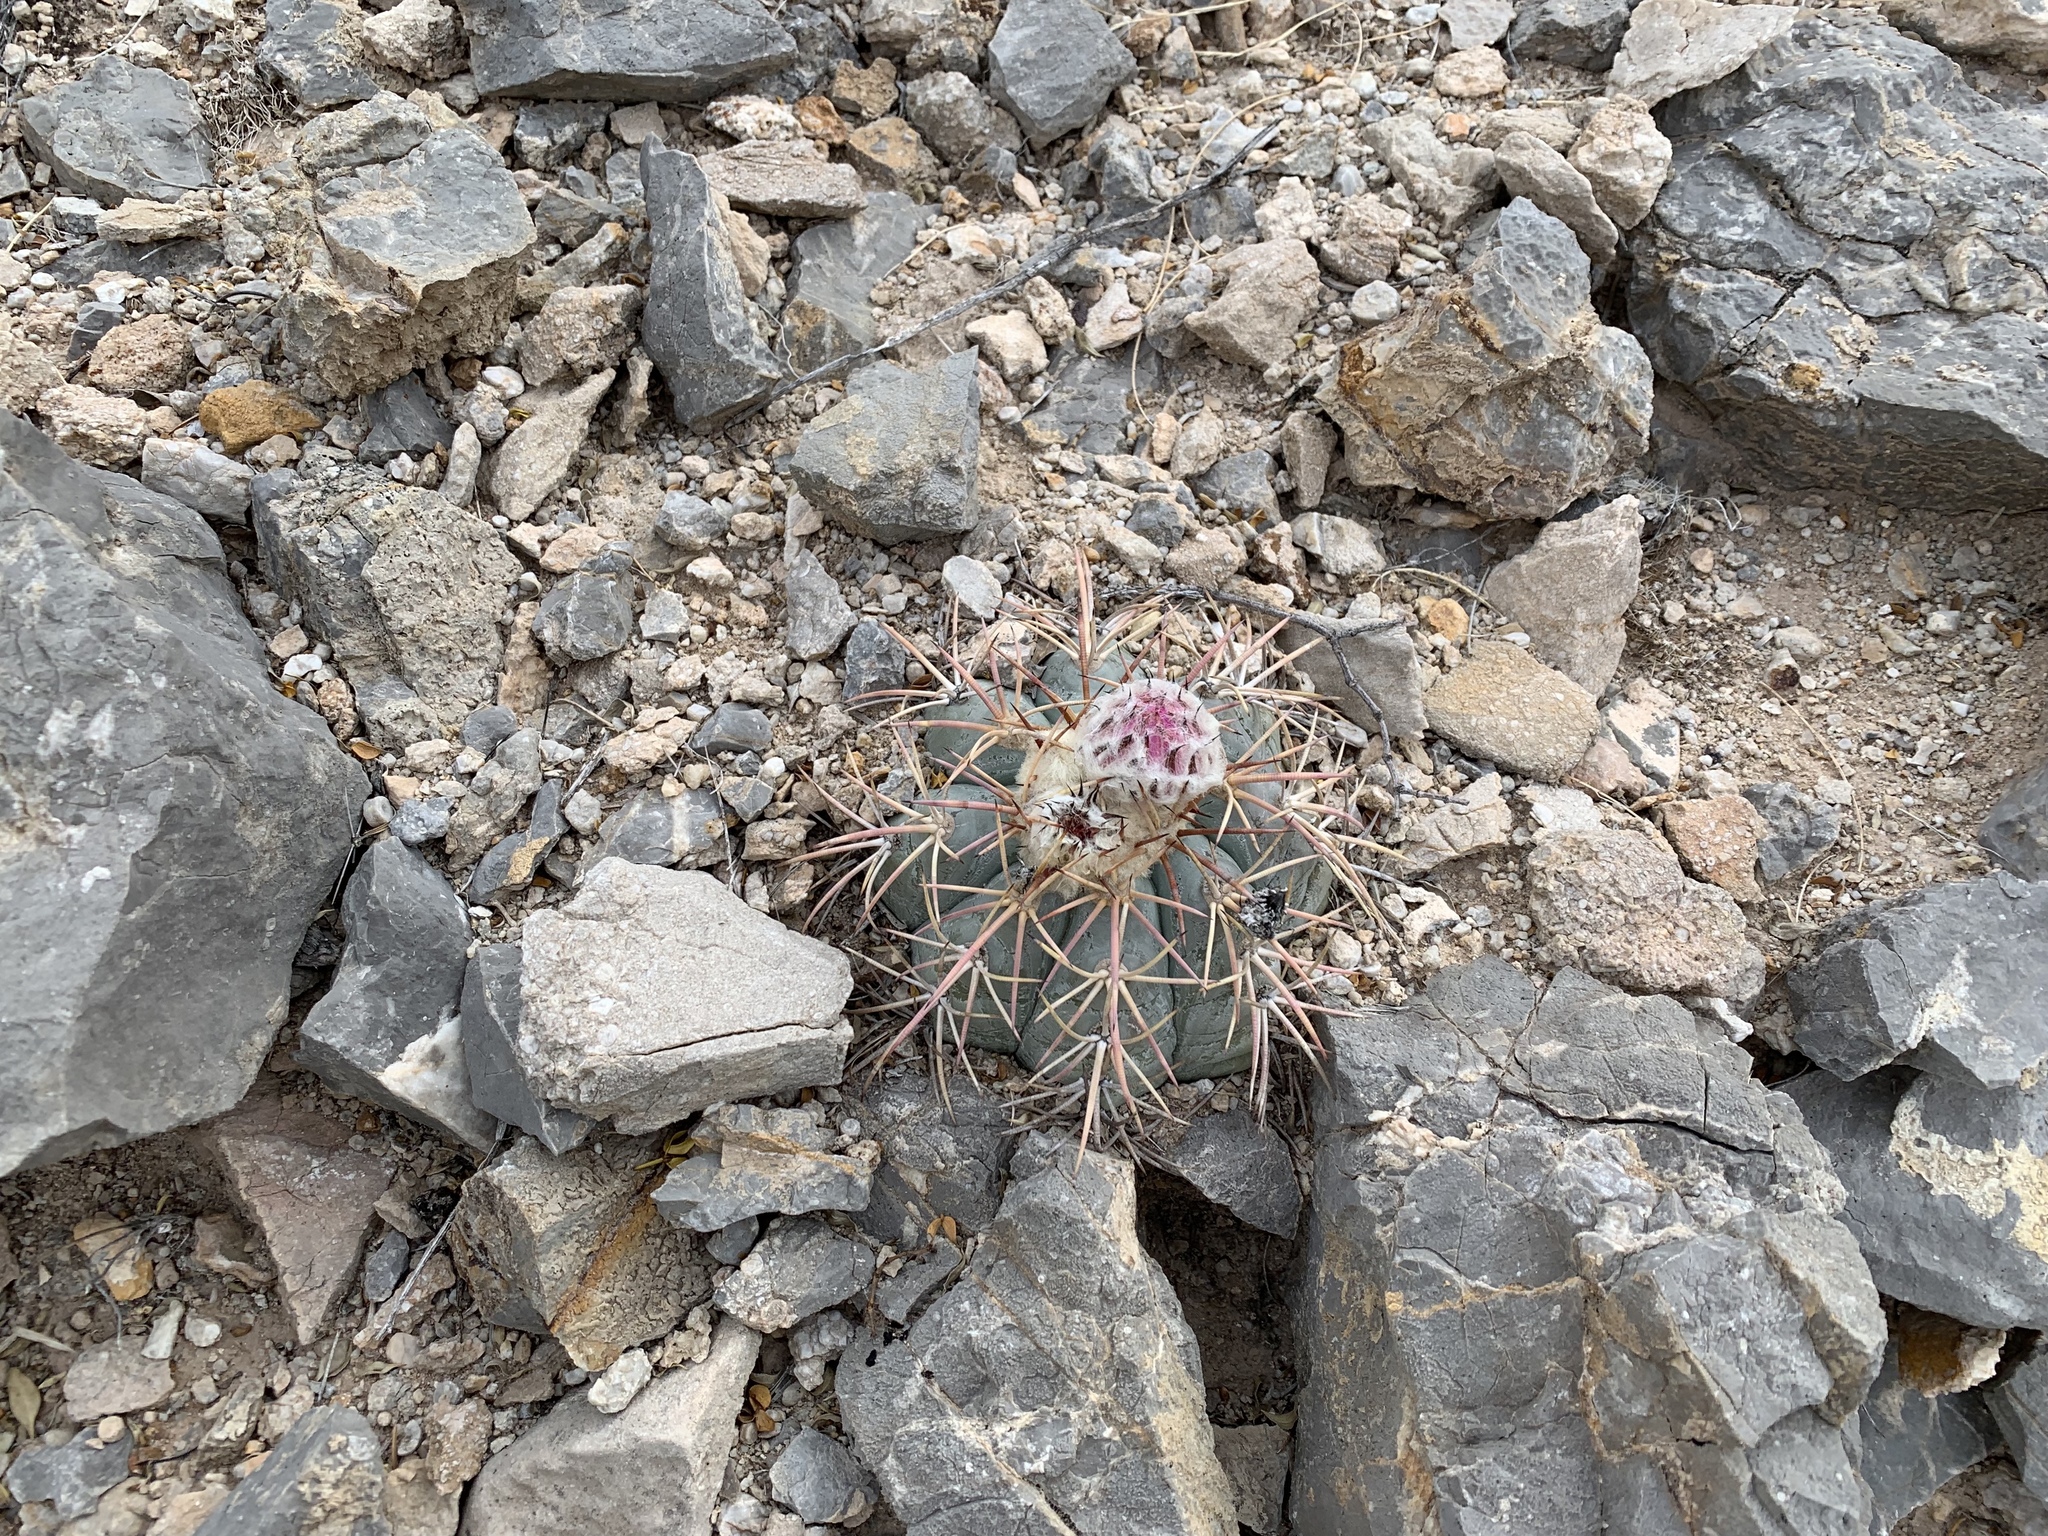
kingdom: Plantae
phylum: Tracheophyta
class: Magnoliopsida
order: Caryophyllales
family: Cactaceae
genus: Echinocactus
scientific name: Echinocactus horizonthalonius
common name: Devilshead
